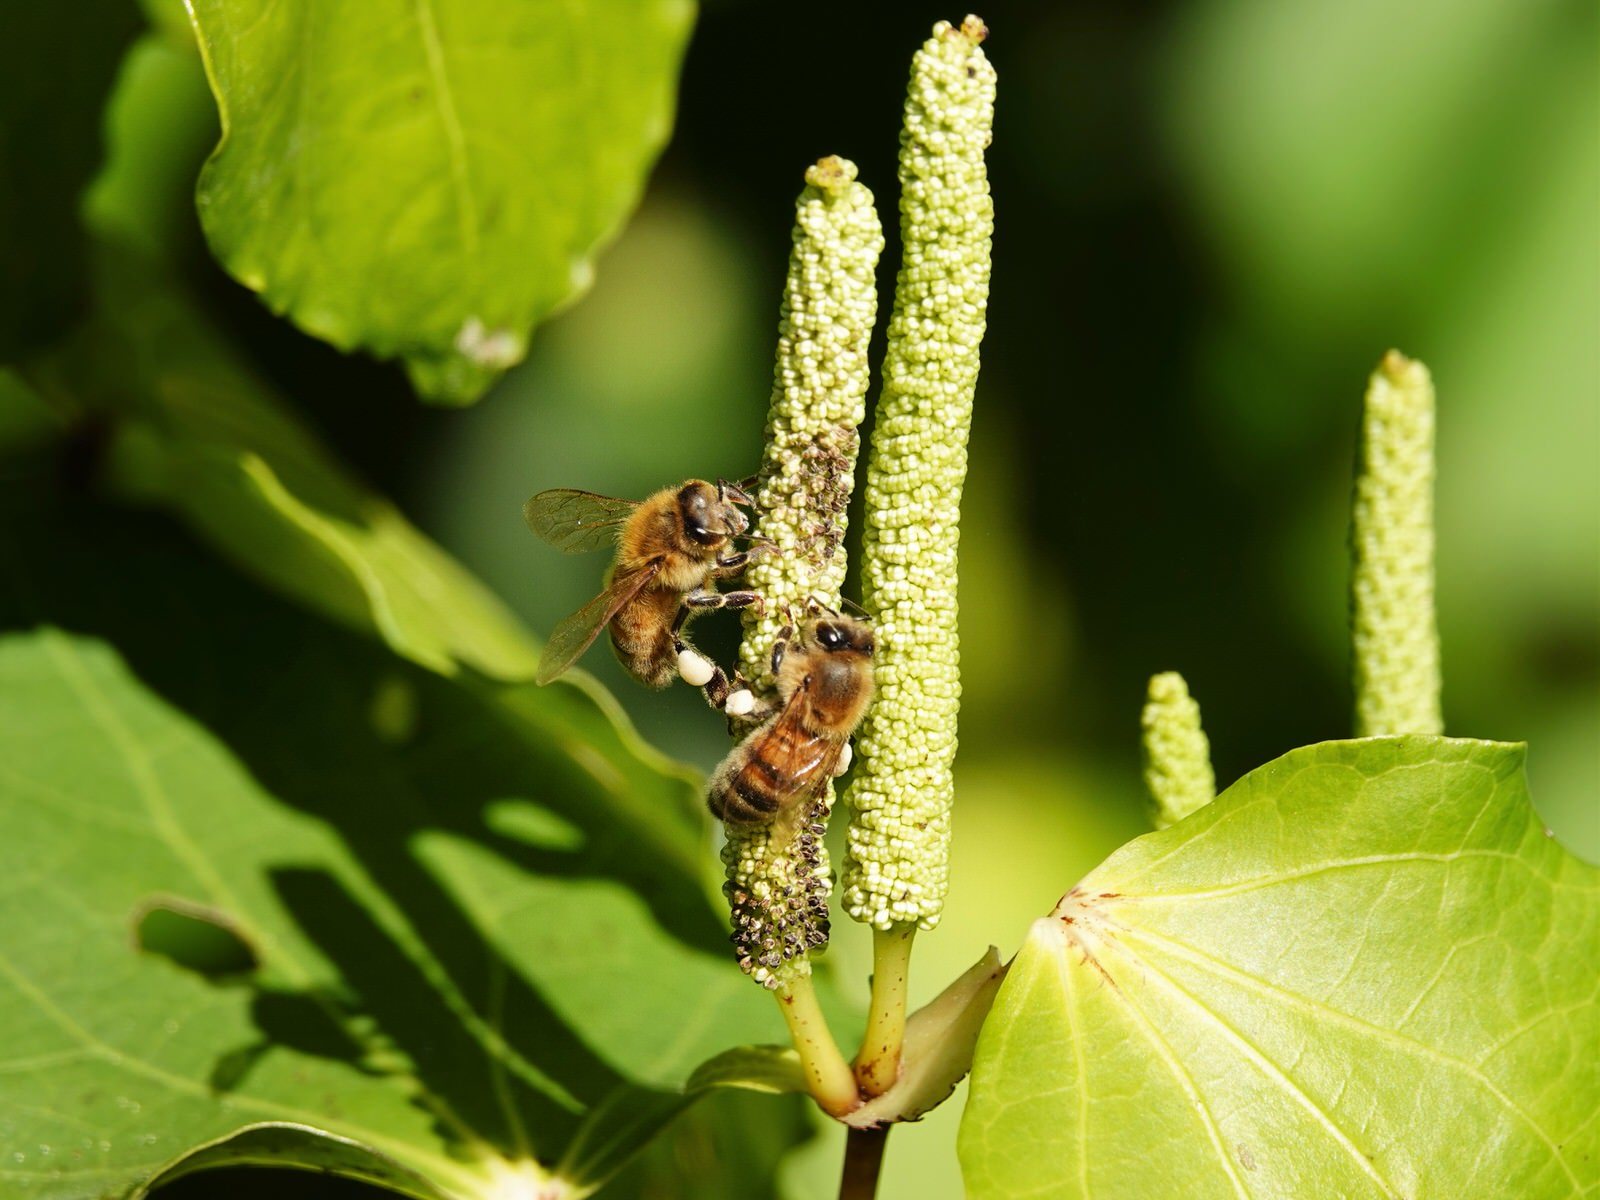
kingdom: Animalia
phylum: Arthropoda
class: Insecta
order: Hymenoptera
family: Apidae
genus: Apis
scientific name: Apis mellifera
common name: Honey bee
